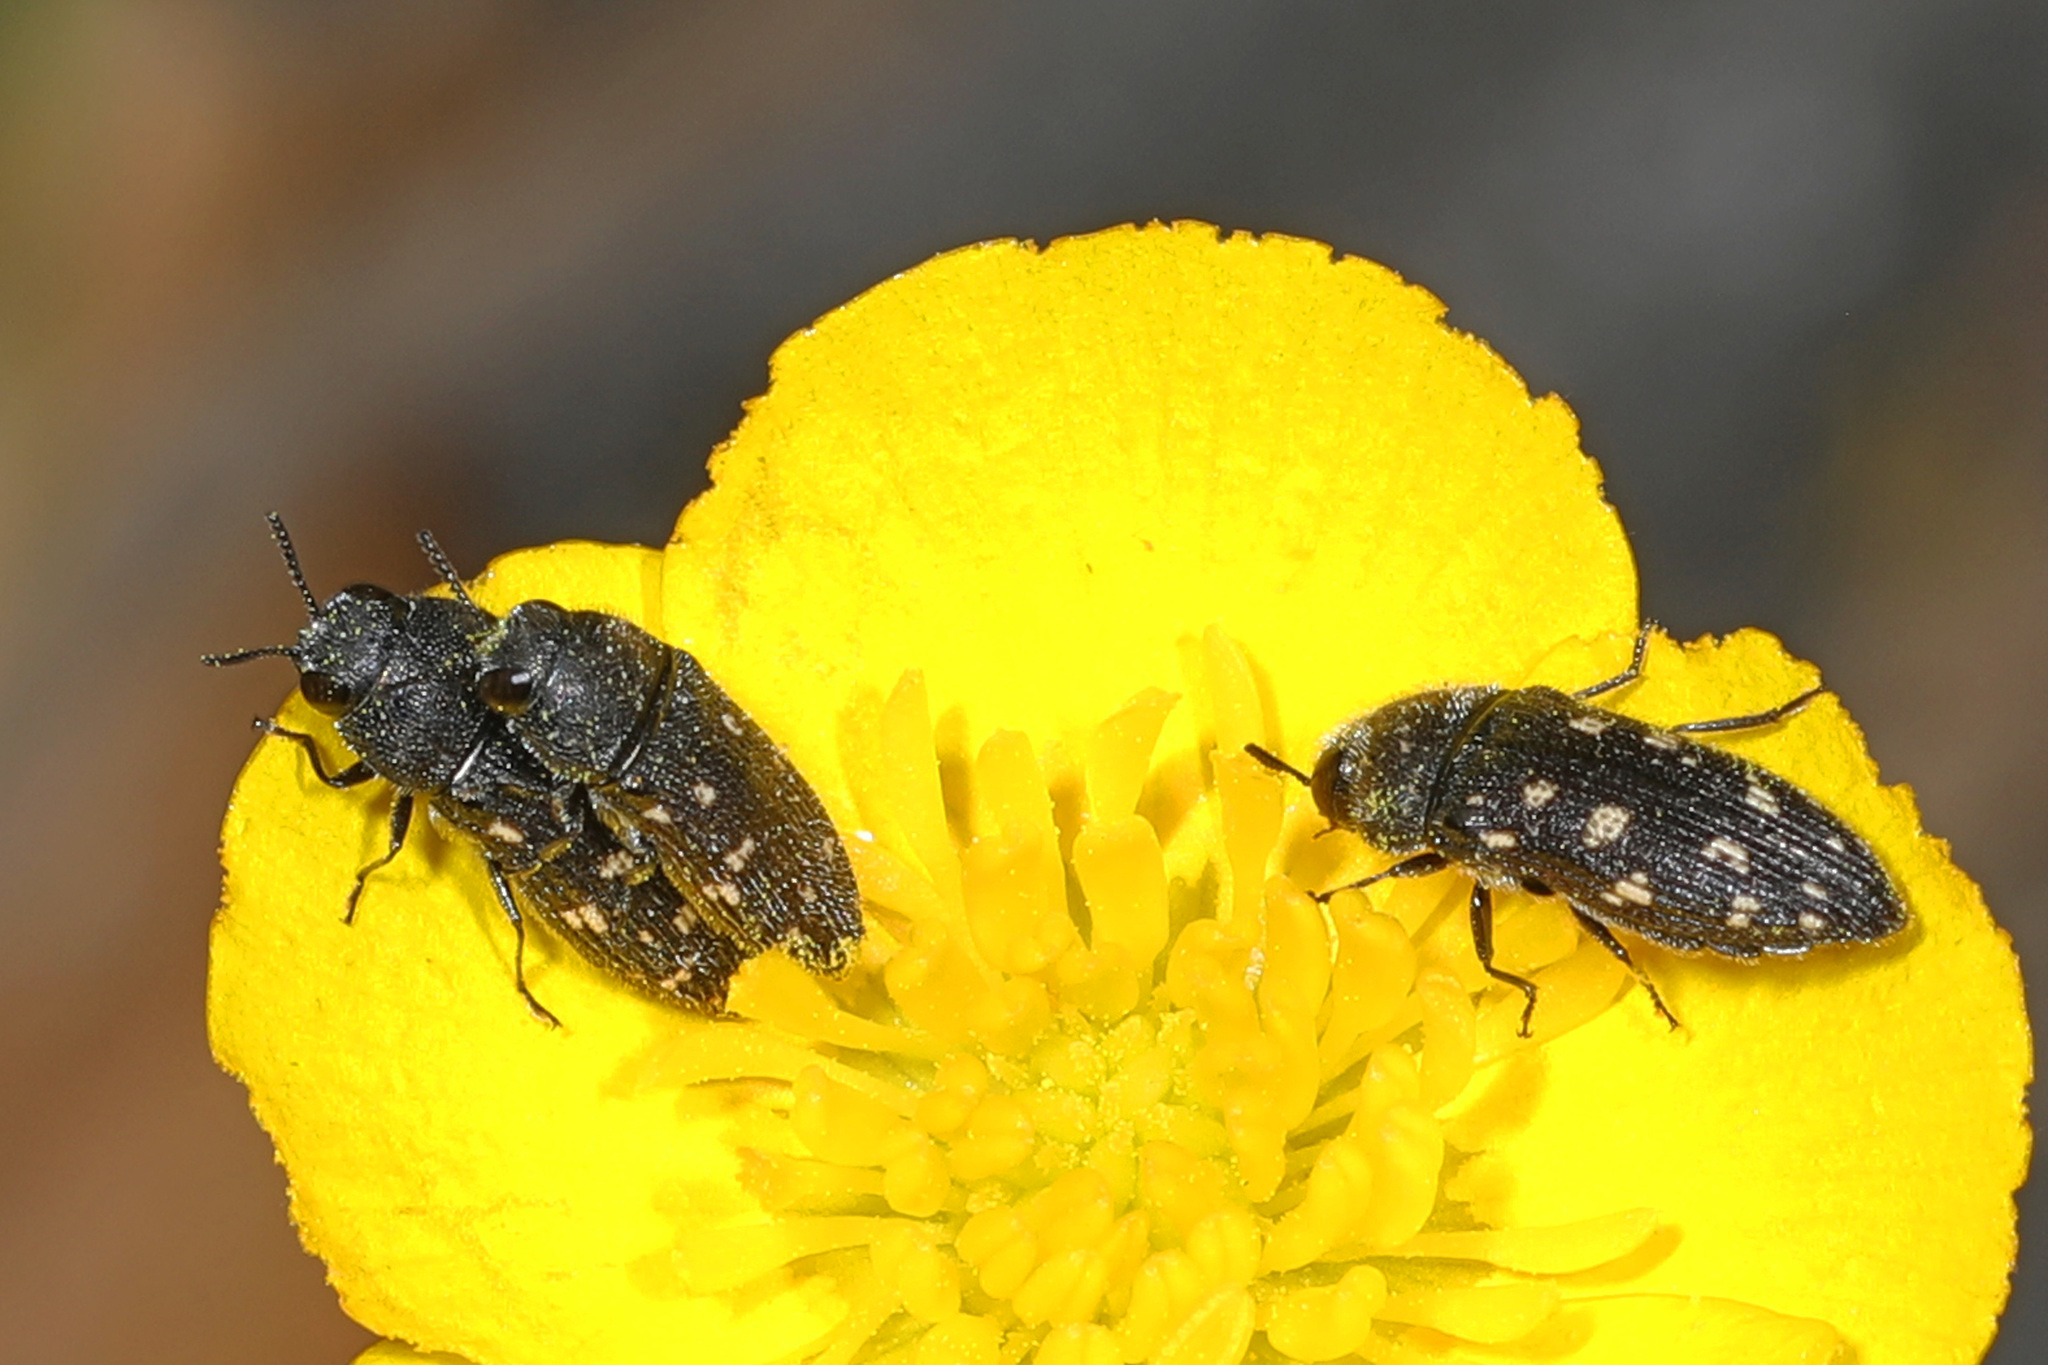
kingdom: Animalia
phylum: Arthropoda
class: Insecta
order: Coleoptera
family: Buprestidae
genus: Acmaeodera
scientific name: Acmaeodera tubulus
